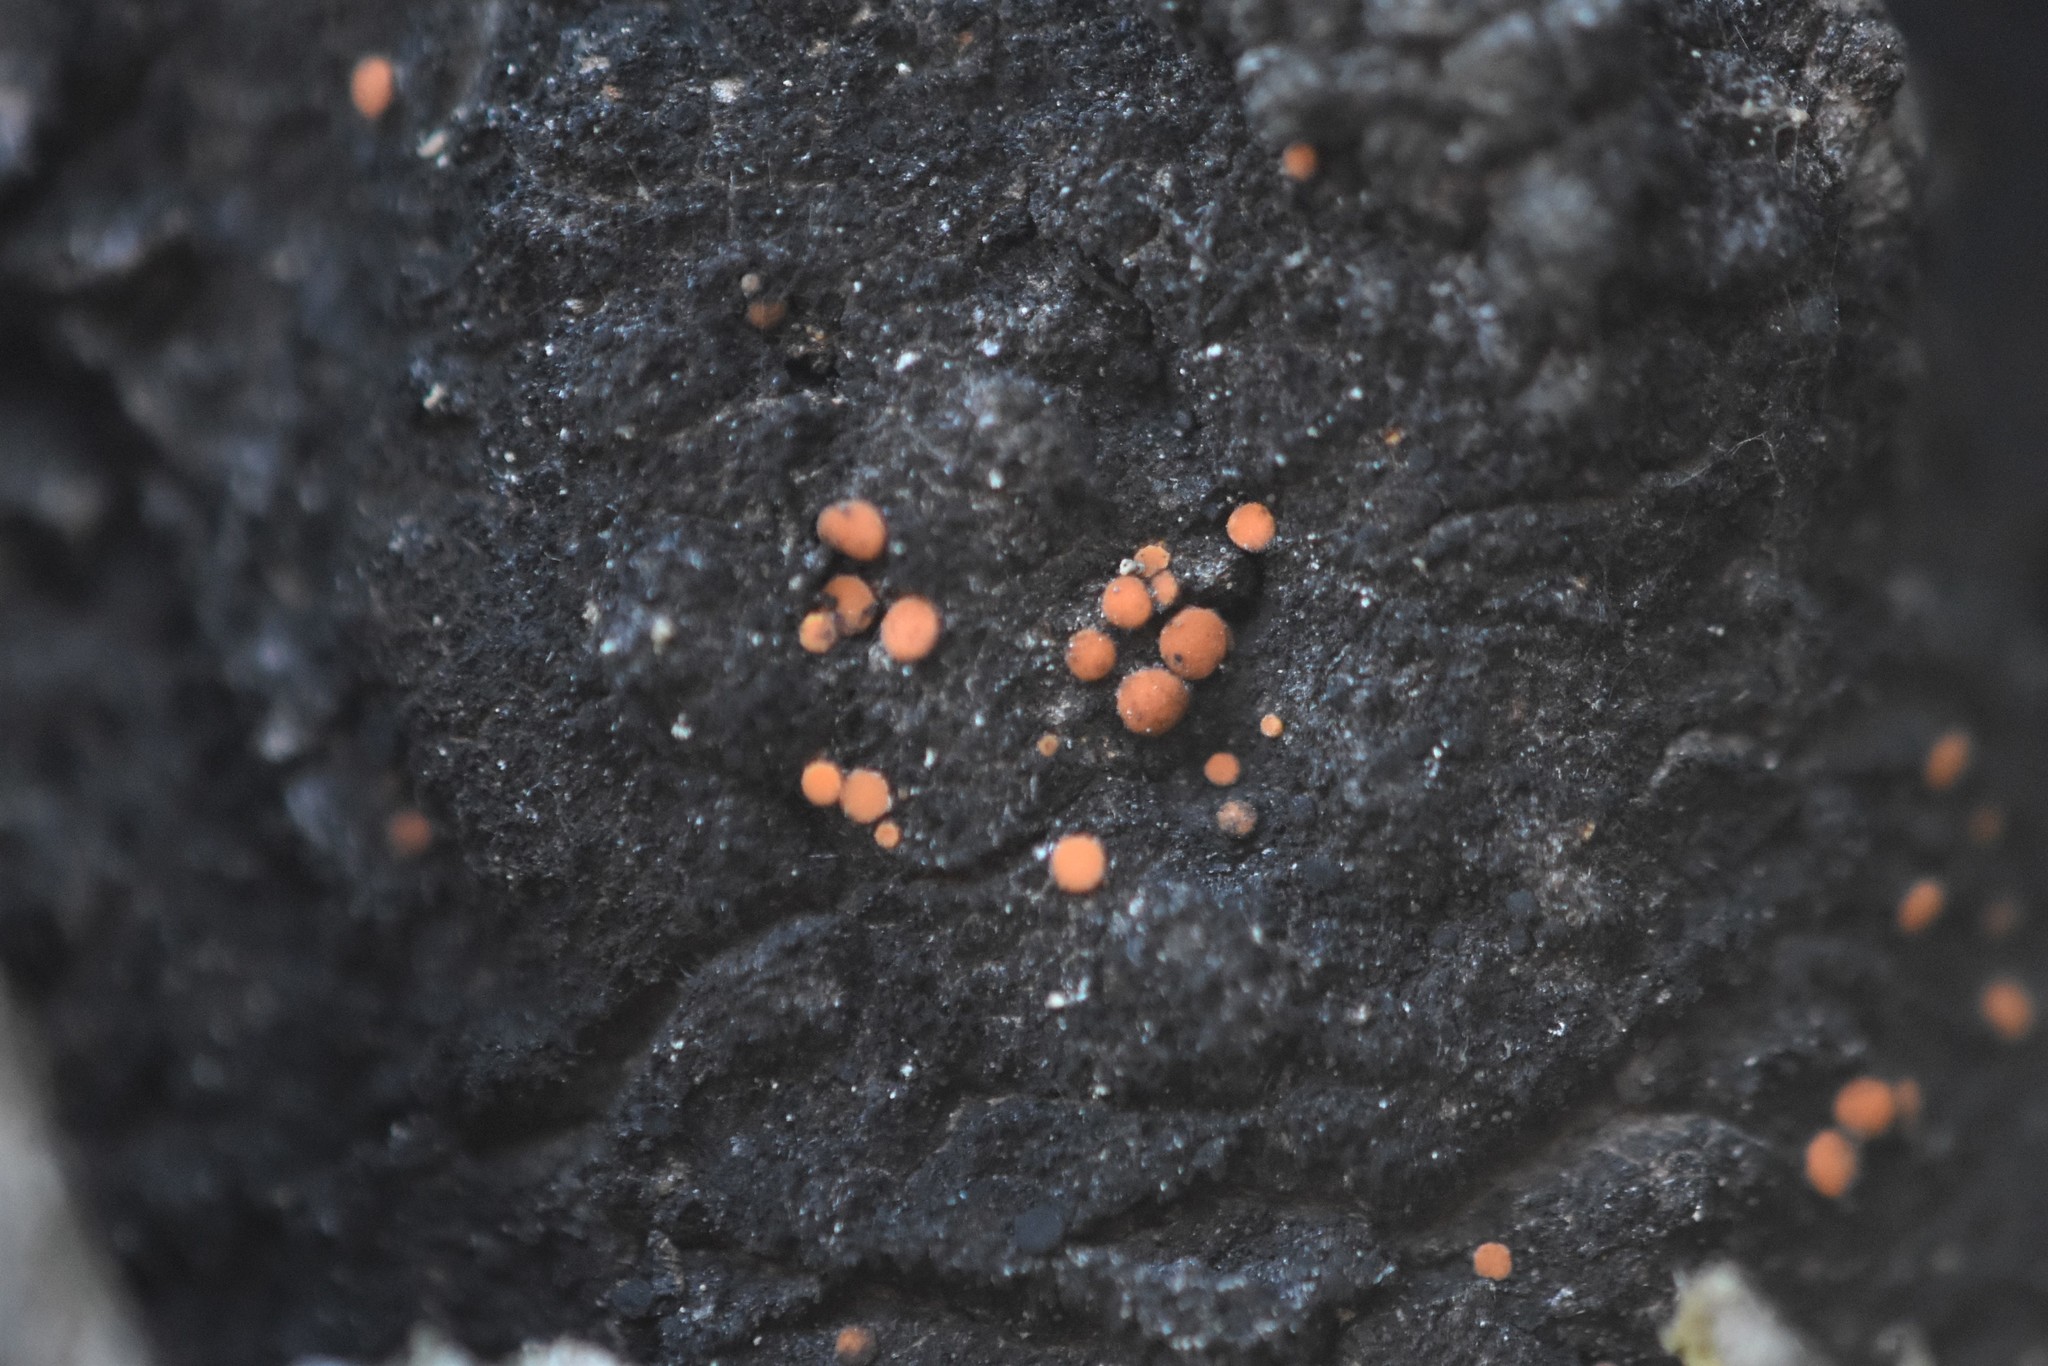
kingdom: Fungi
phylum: Ascomycota
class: Sareomycetes
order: Sareales
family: Sareaceae
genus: Sarea
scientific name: Sarea resinae
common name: Sarea lichen
